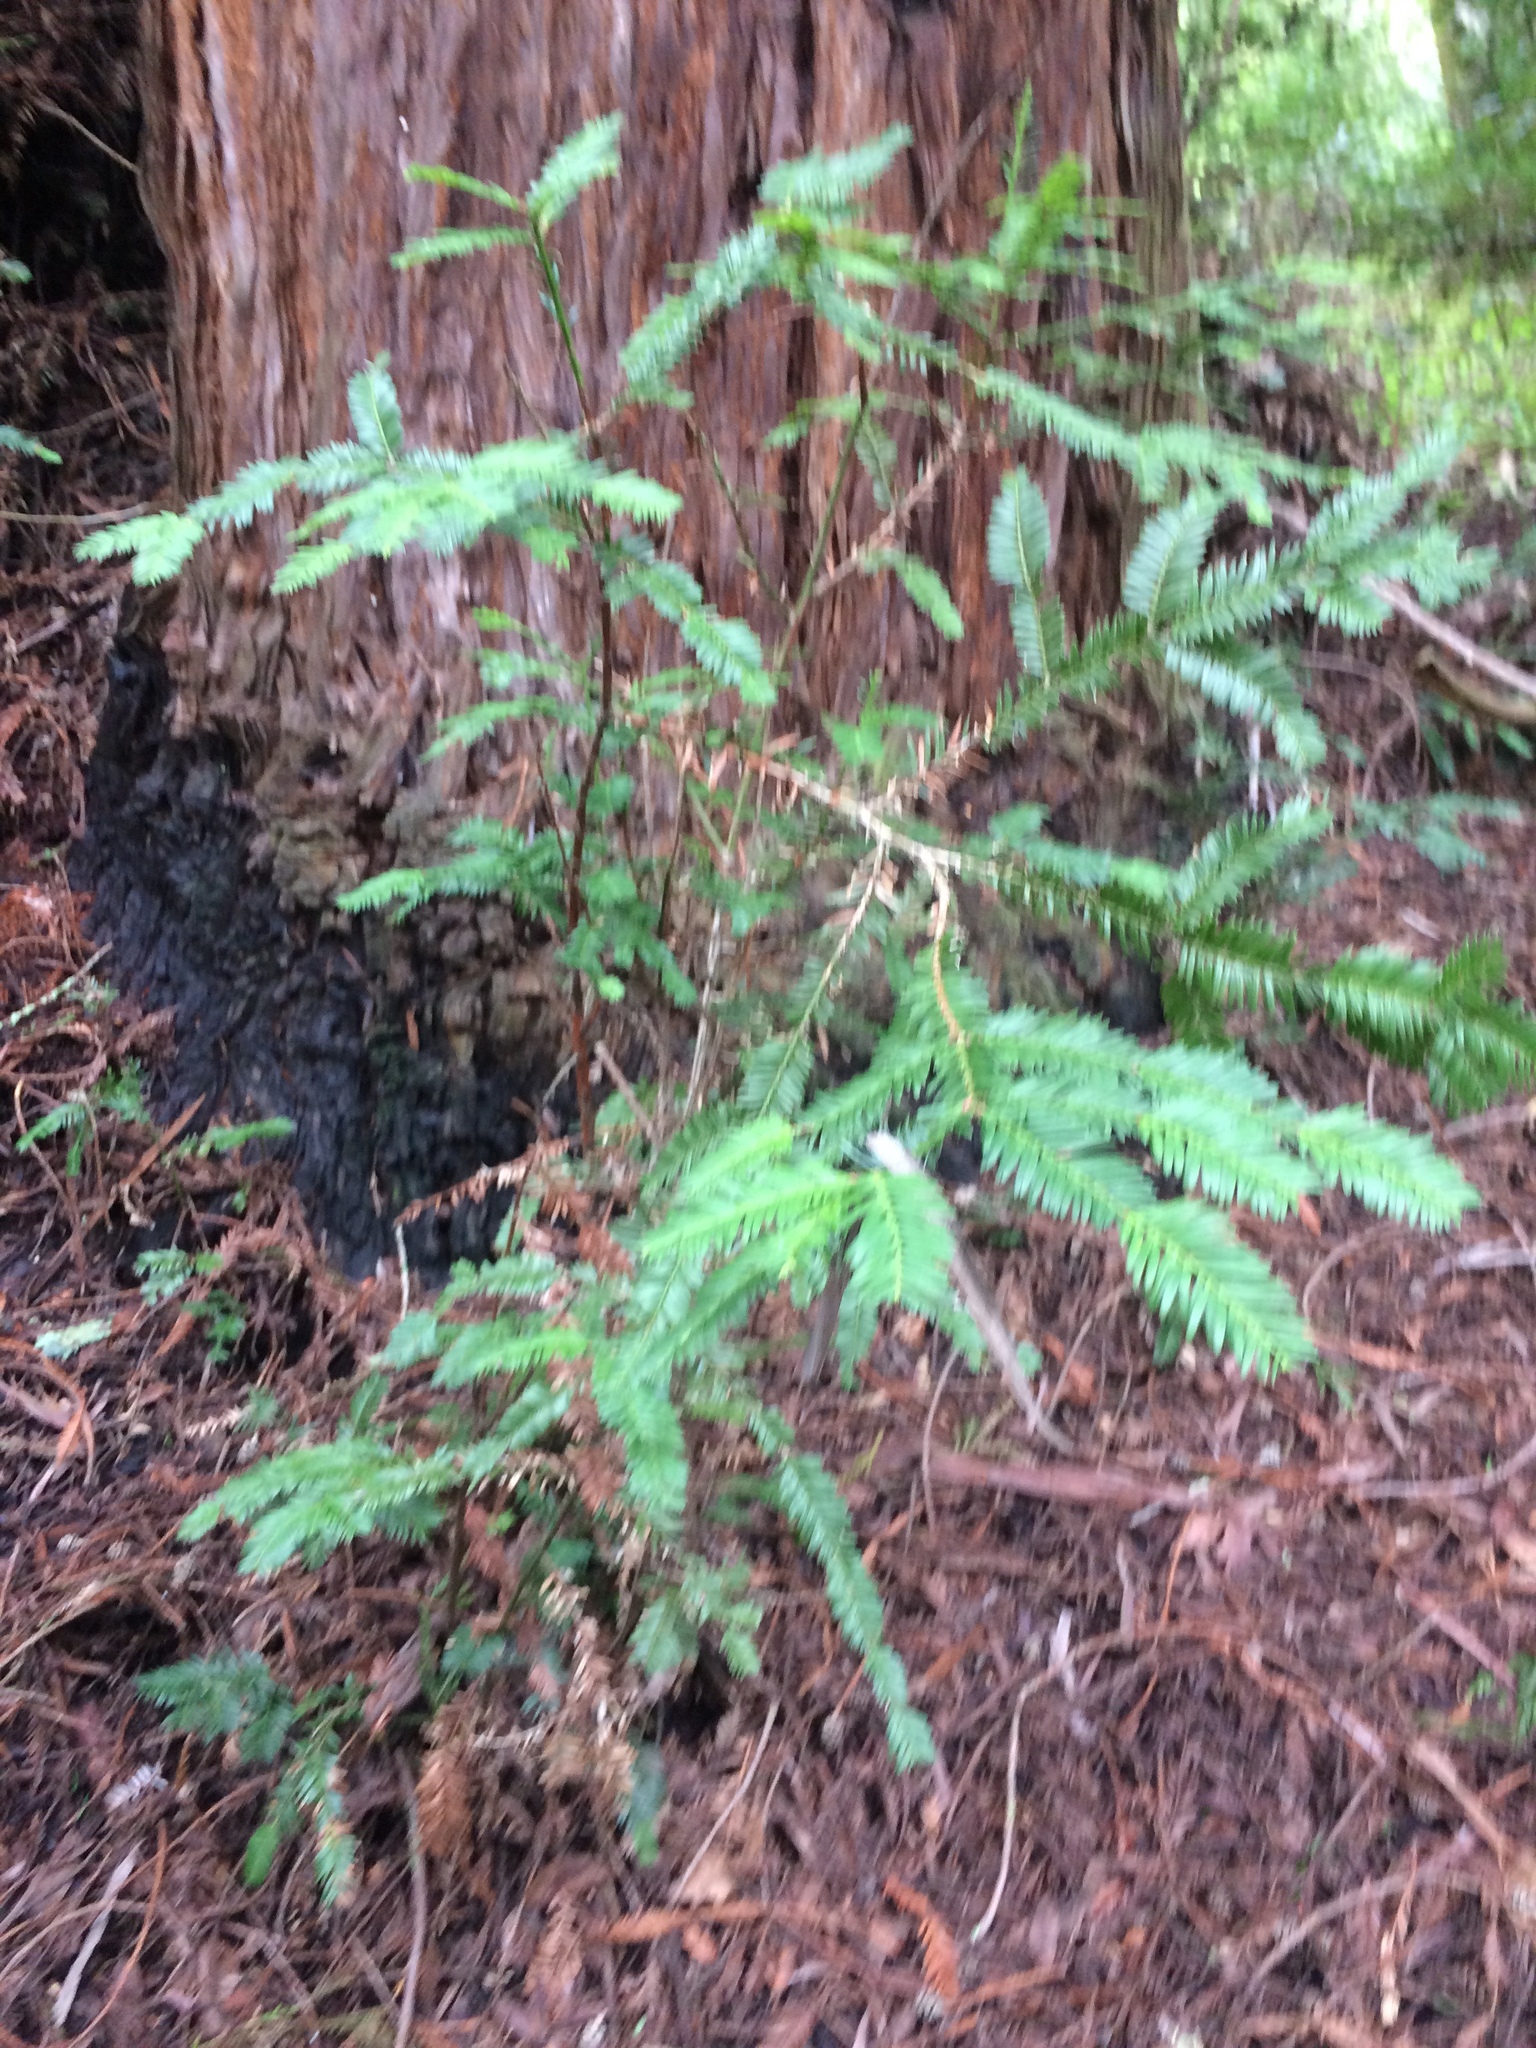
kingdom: Plantae
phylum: Tracheophyta
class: Pinopsida
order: Pinales
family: Cupressaceae
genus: Sequoia
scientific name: Sequoia sempervirens
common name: Coast redwood
